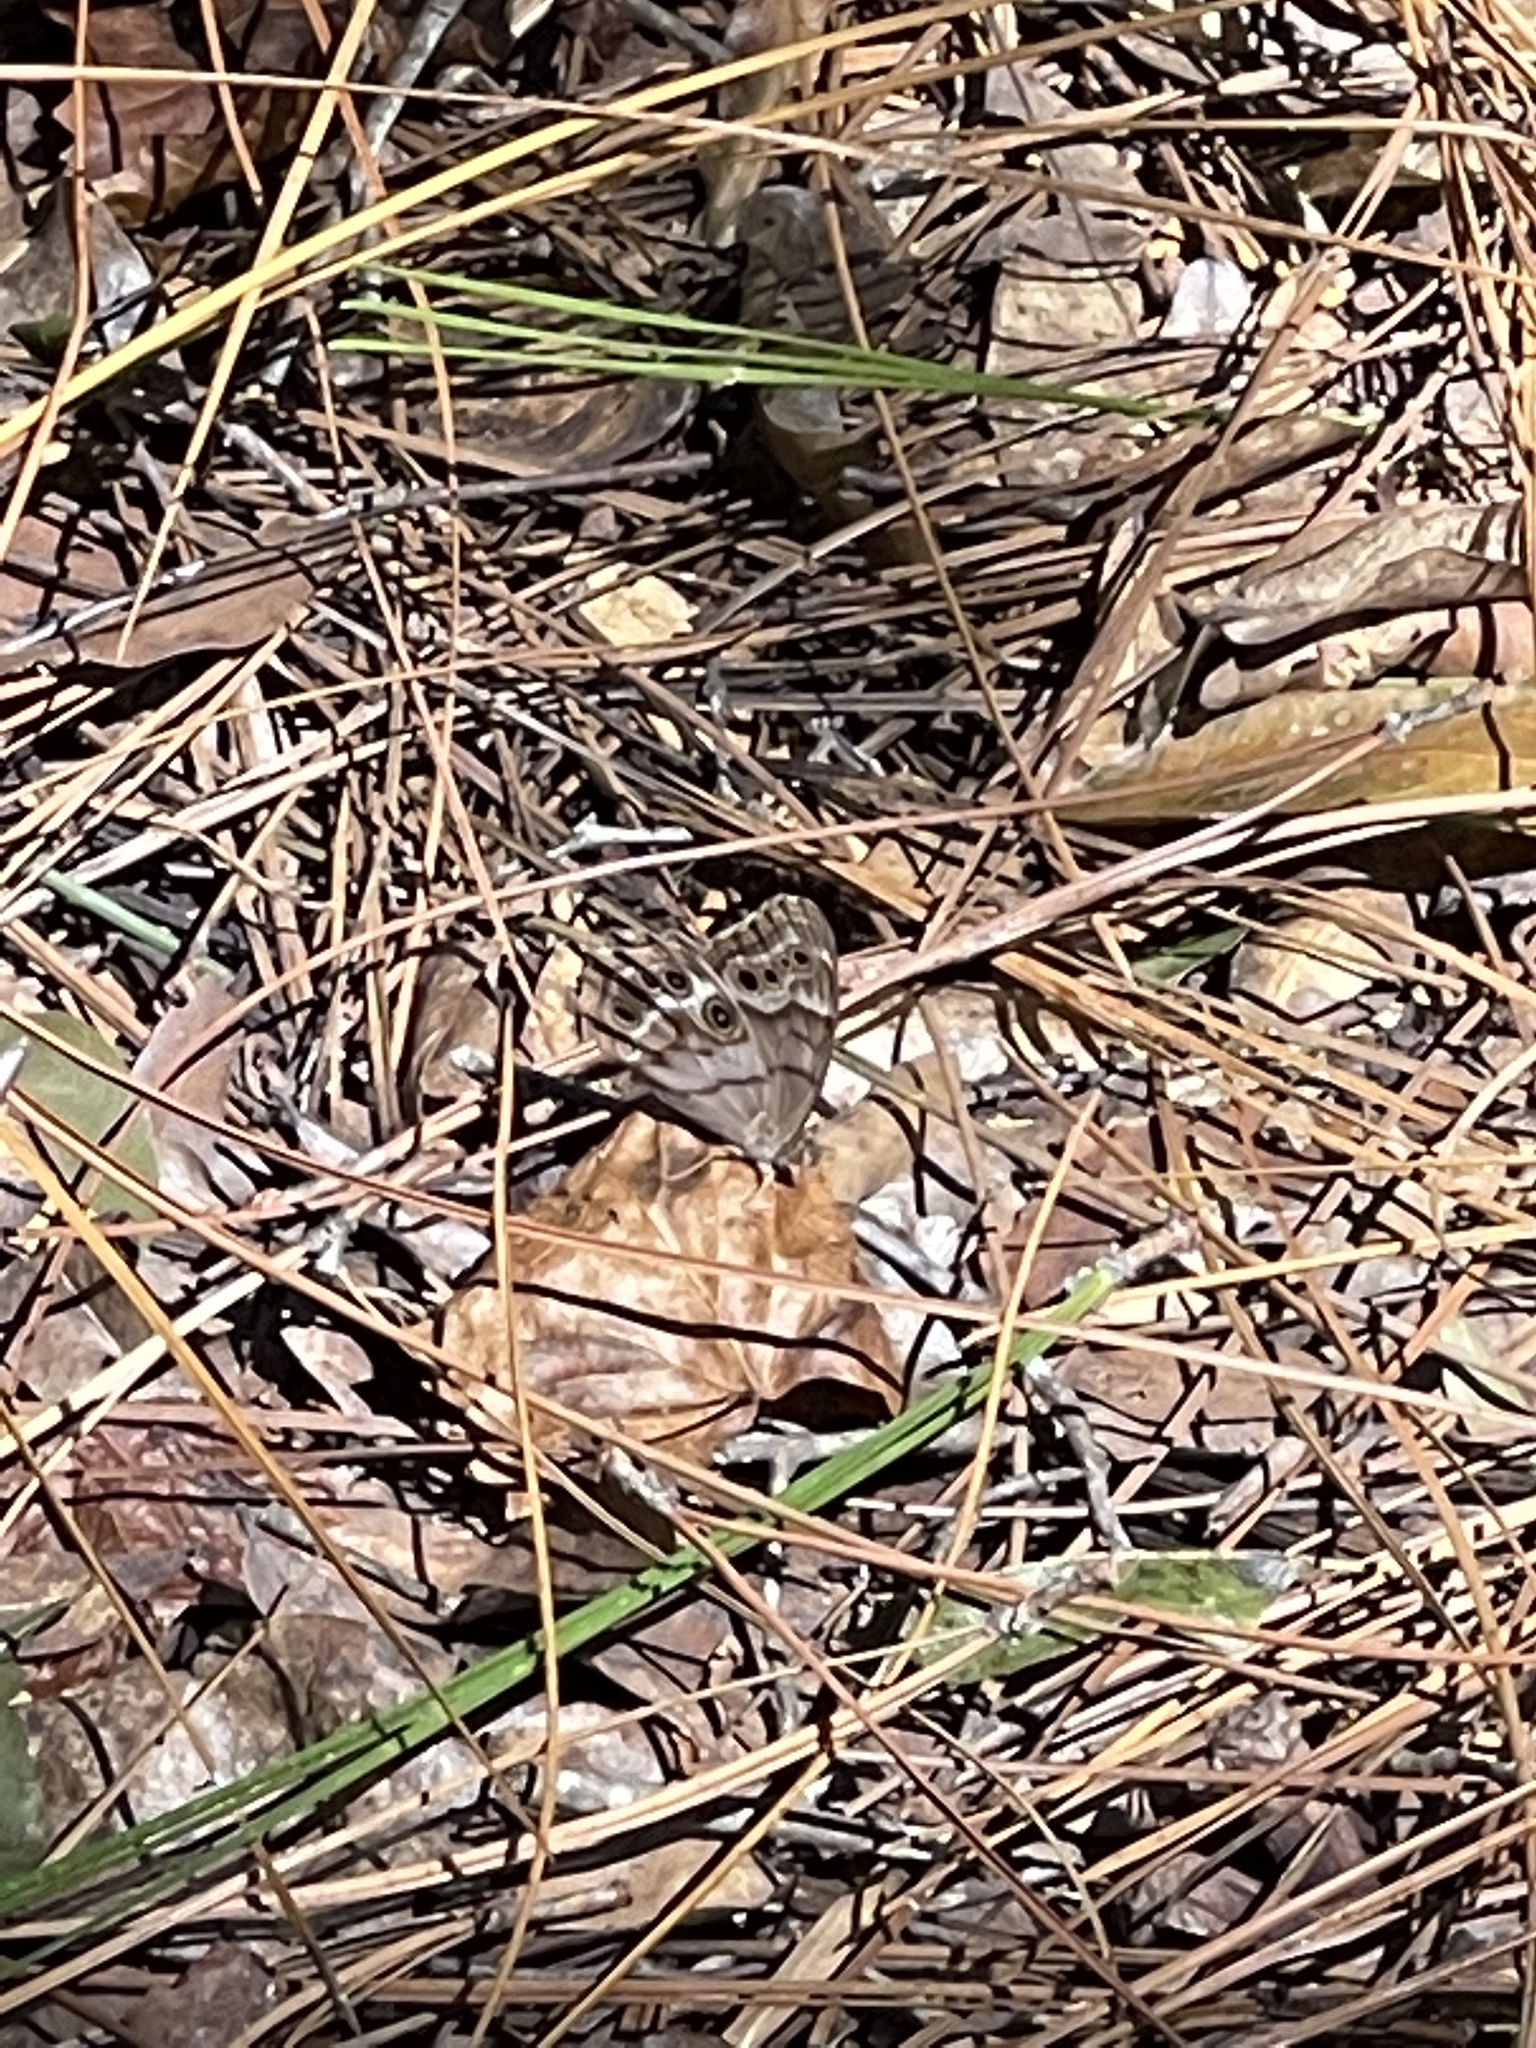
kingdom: Animalia
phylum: Arthropoda
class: Insecta
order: Lepidoptera
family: Nymphalidae
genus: Enodia
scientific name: Enodia portlandia
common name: Southern pearly-eye
